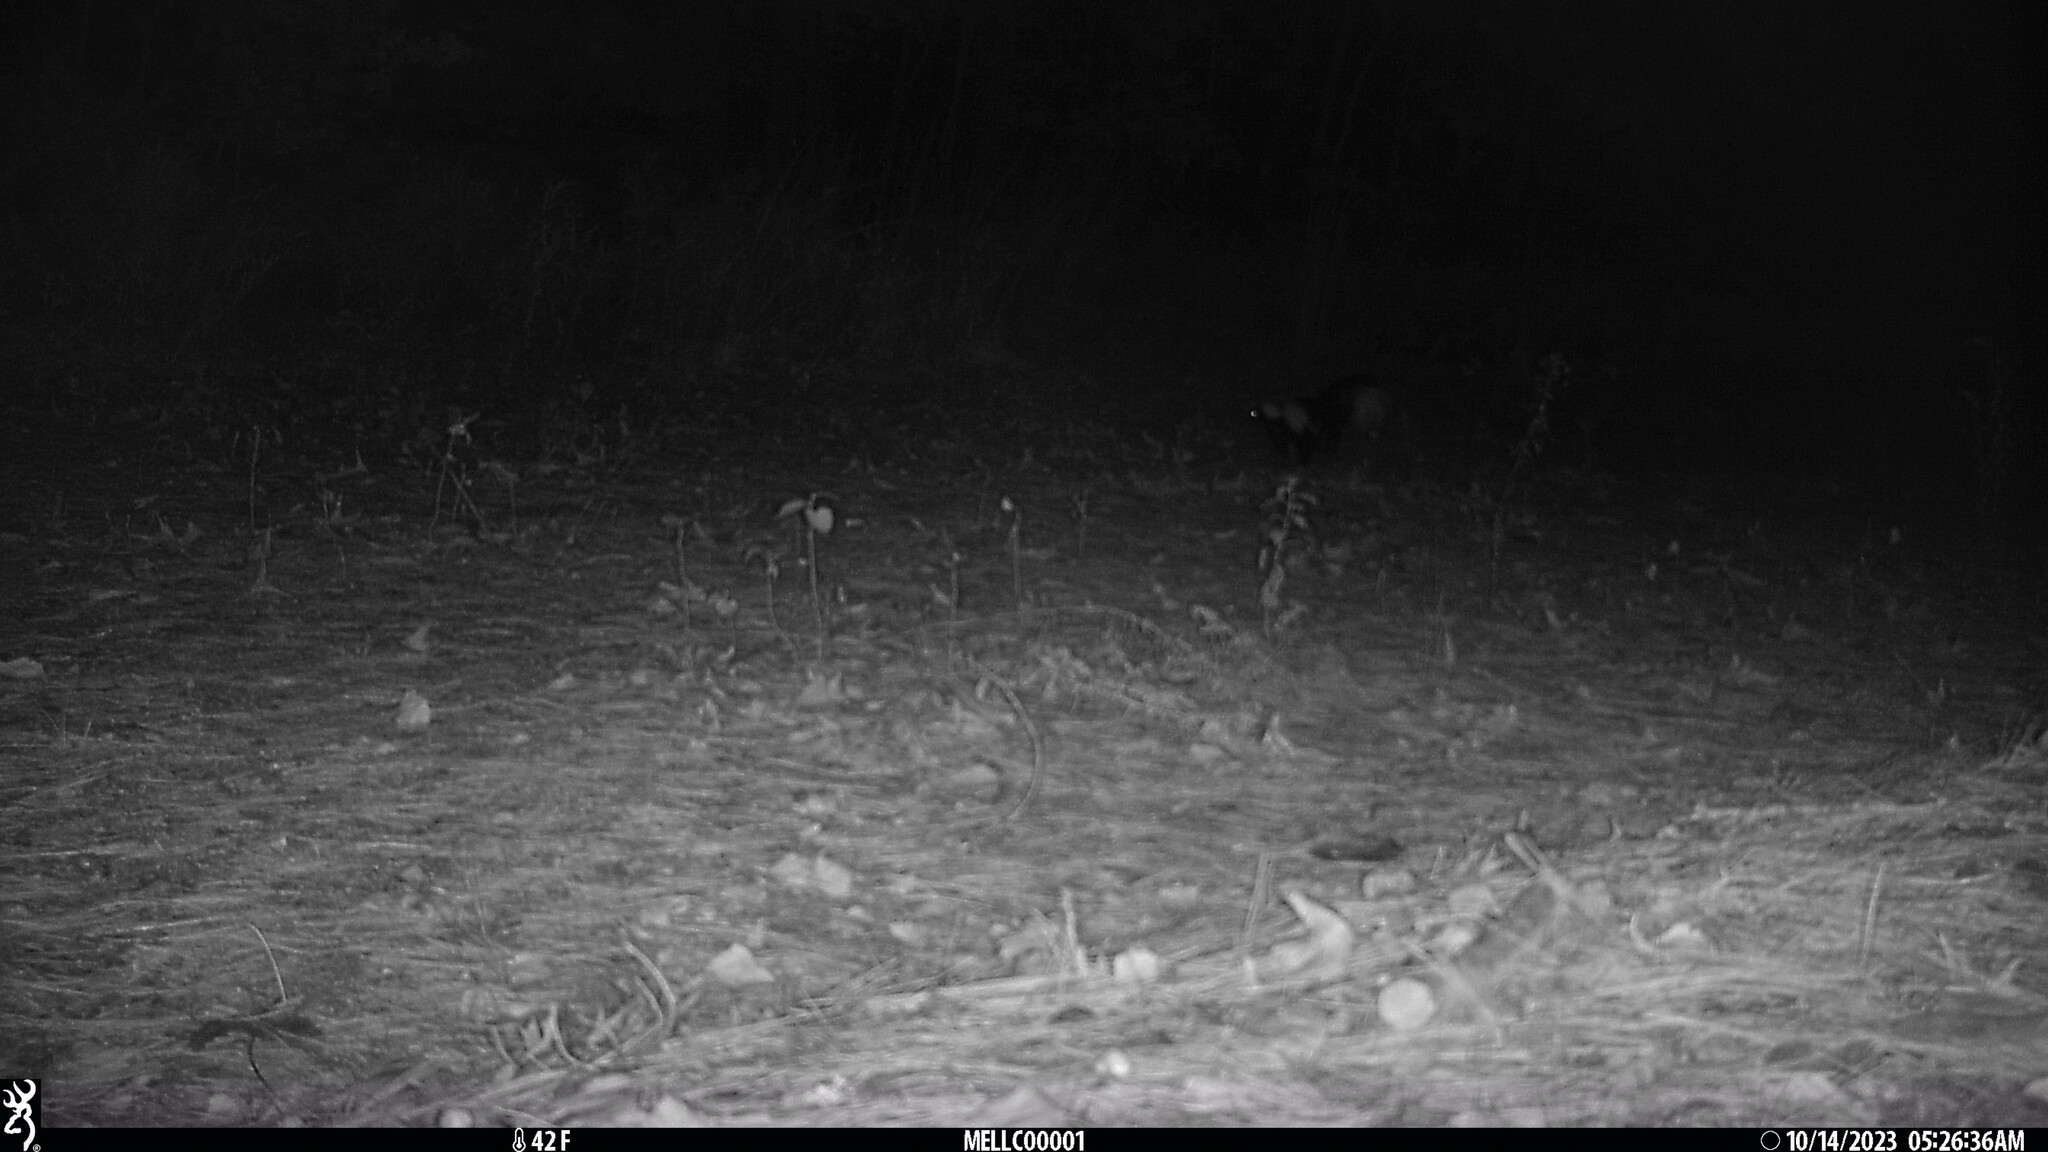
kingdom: Animalia
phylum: Chordata
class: Mammalia
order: Carnivora
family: Mephitidae
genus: Mephitis
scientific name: Mephitis mephitis
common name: Striped skunk
